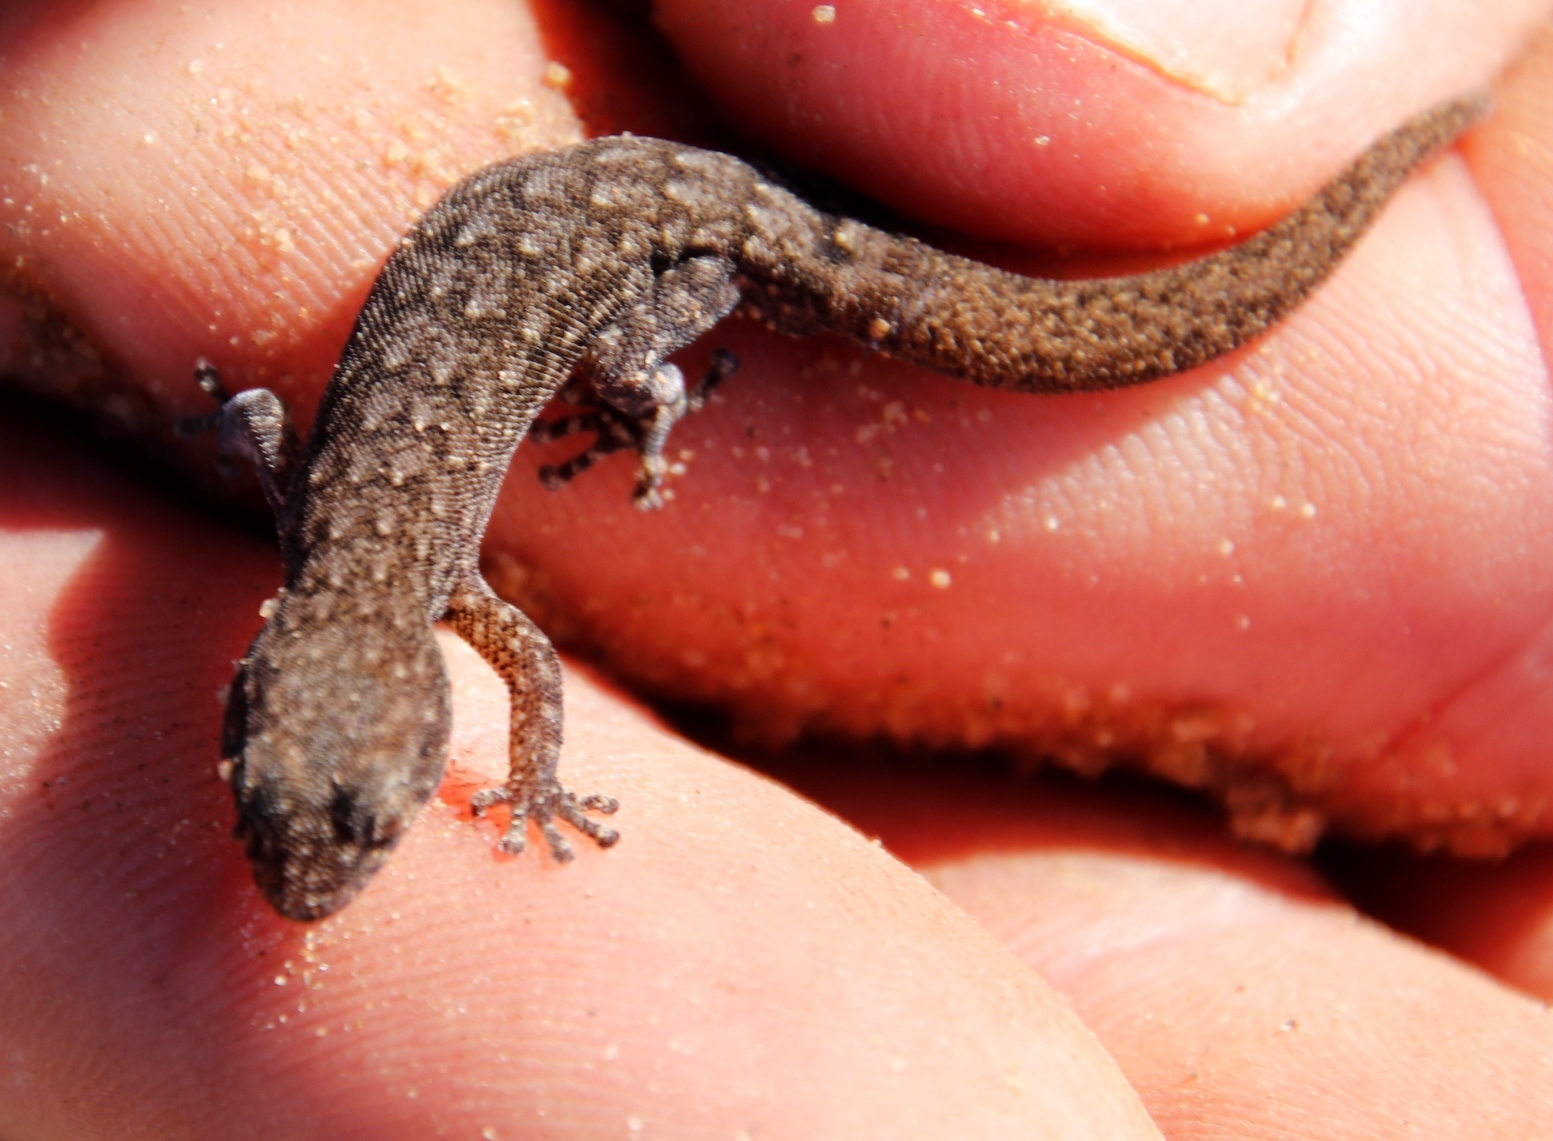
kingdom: Animalia
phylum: Chordata
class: Squamata
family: Gekkonidae
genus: Goggia
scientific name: Goggia hexapora
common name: Cedarberg dwarf leaf-toed gecko
